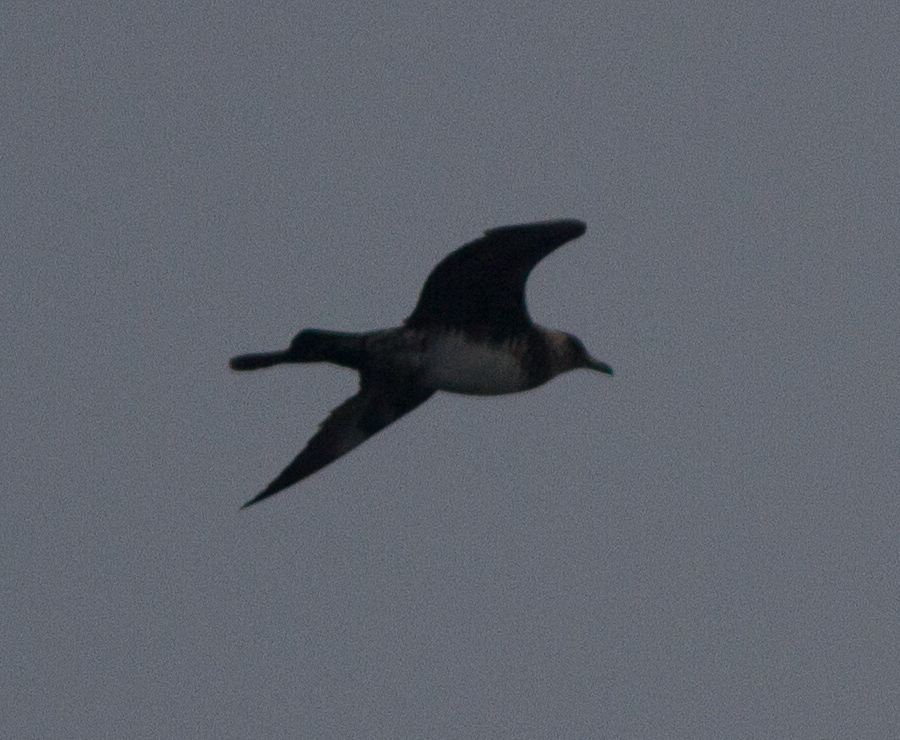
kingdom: Animalia
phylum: Chordata
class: Aves
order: Charadriiformes
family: Stercorariidae
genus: Stercorarius
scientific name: Stercorarius pomarinus
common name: Pomarine jaeger
